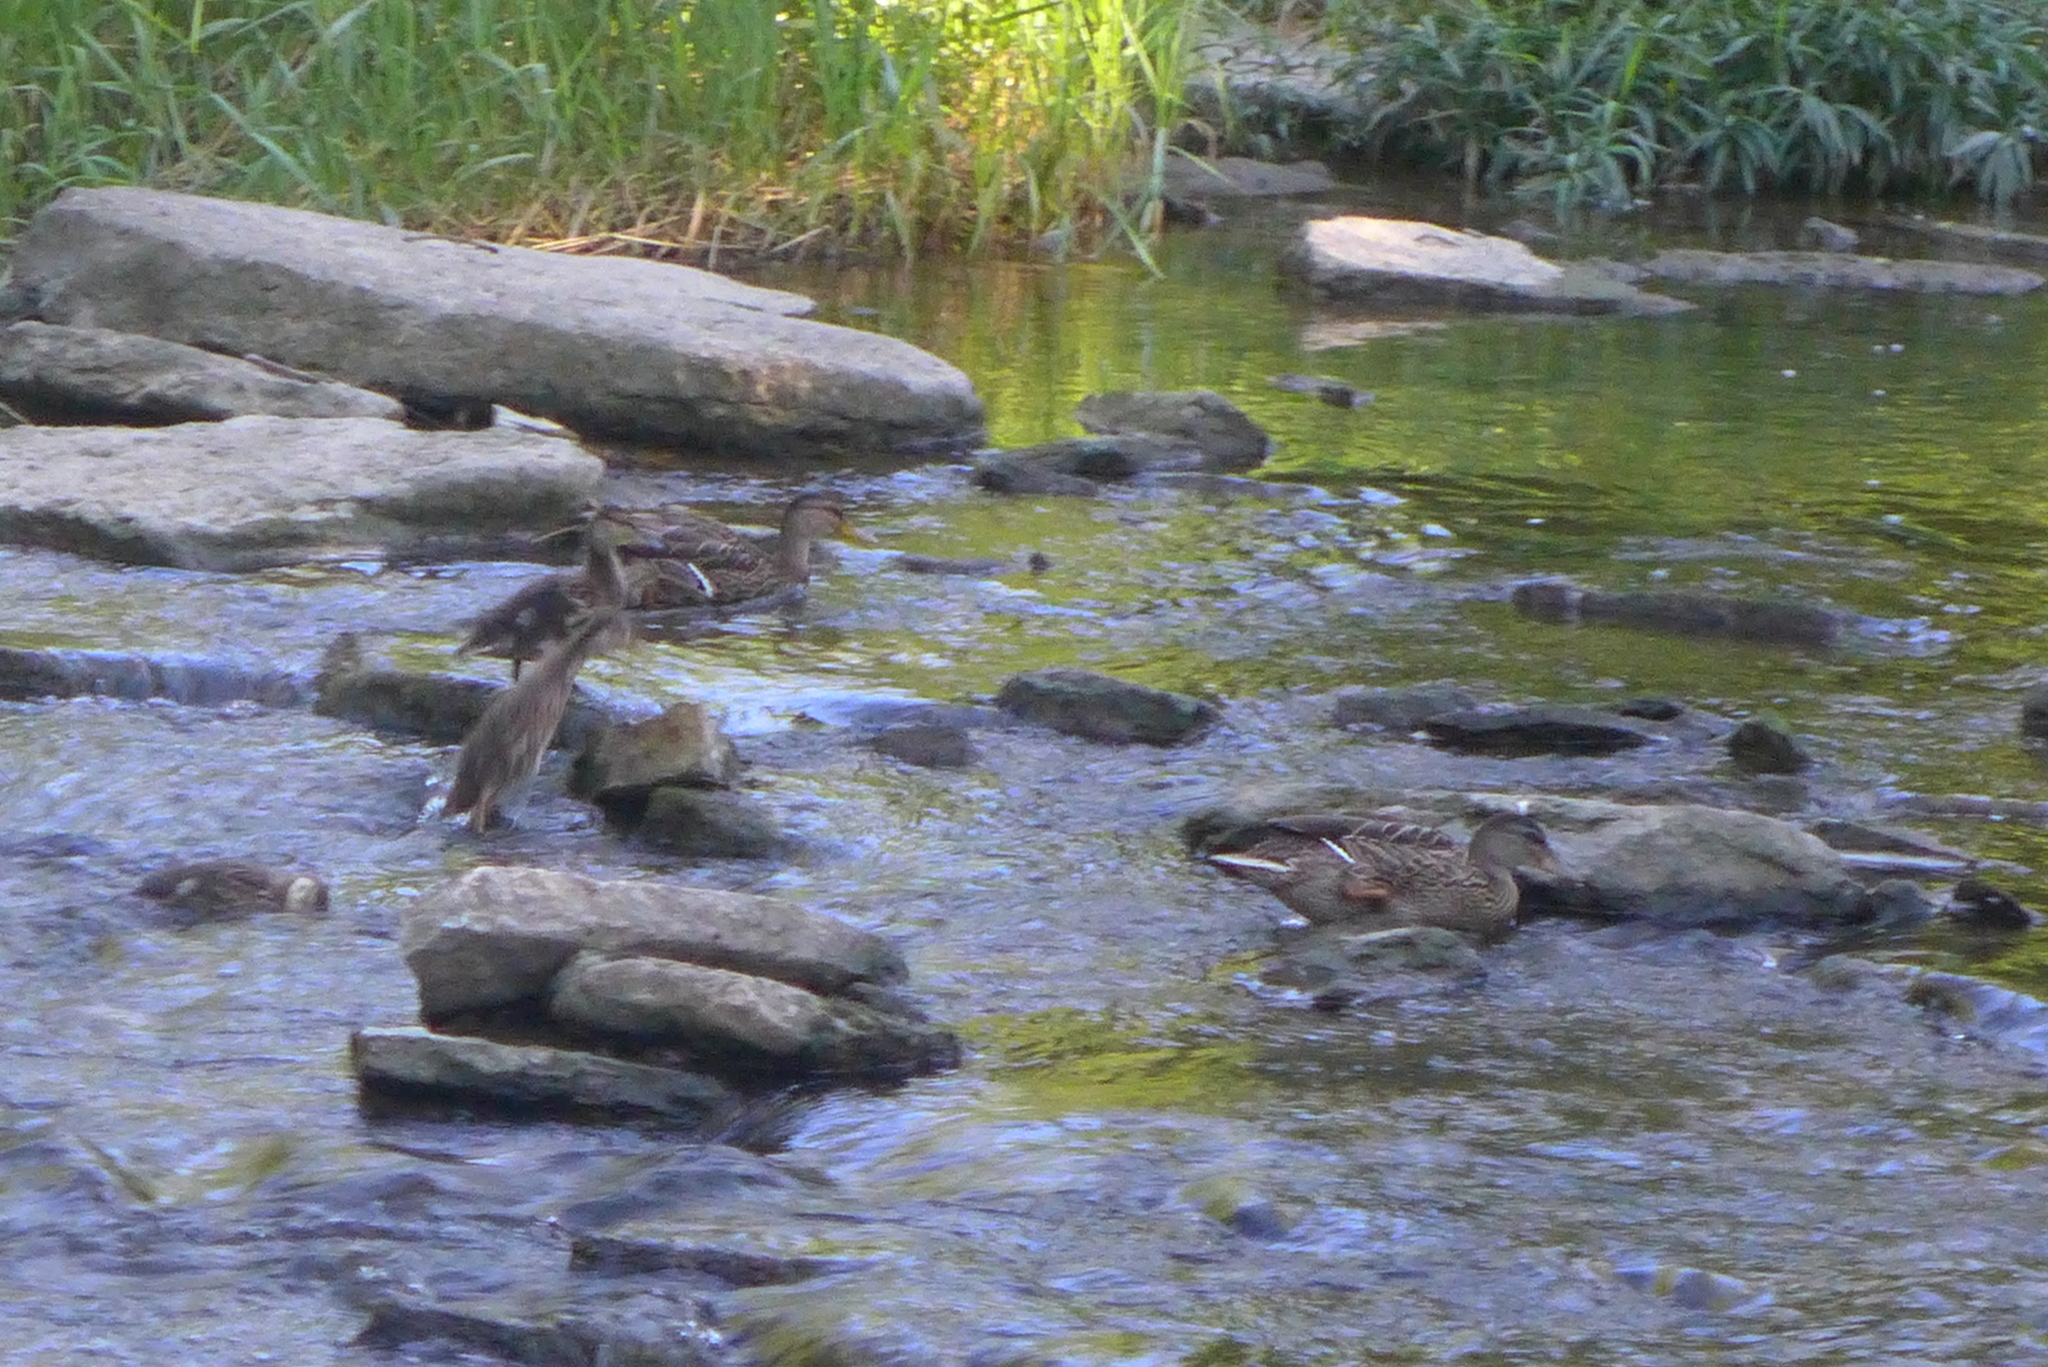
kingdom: Animalia
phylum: Chordata
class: Aves
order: Anseriformes
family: Anatidae
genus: Anas
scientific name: Anas platyrhynchos
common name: Mallard
